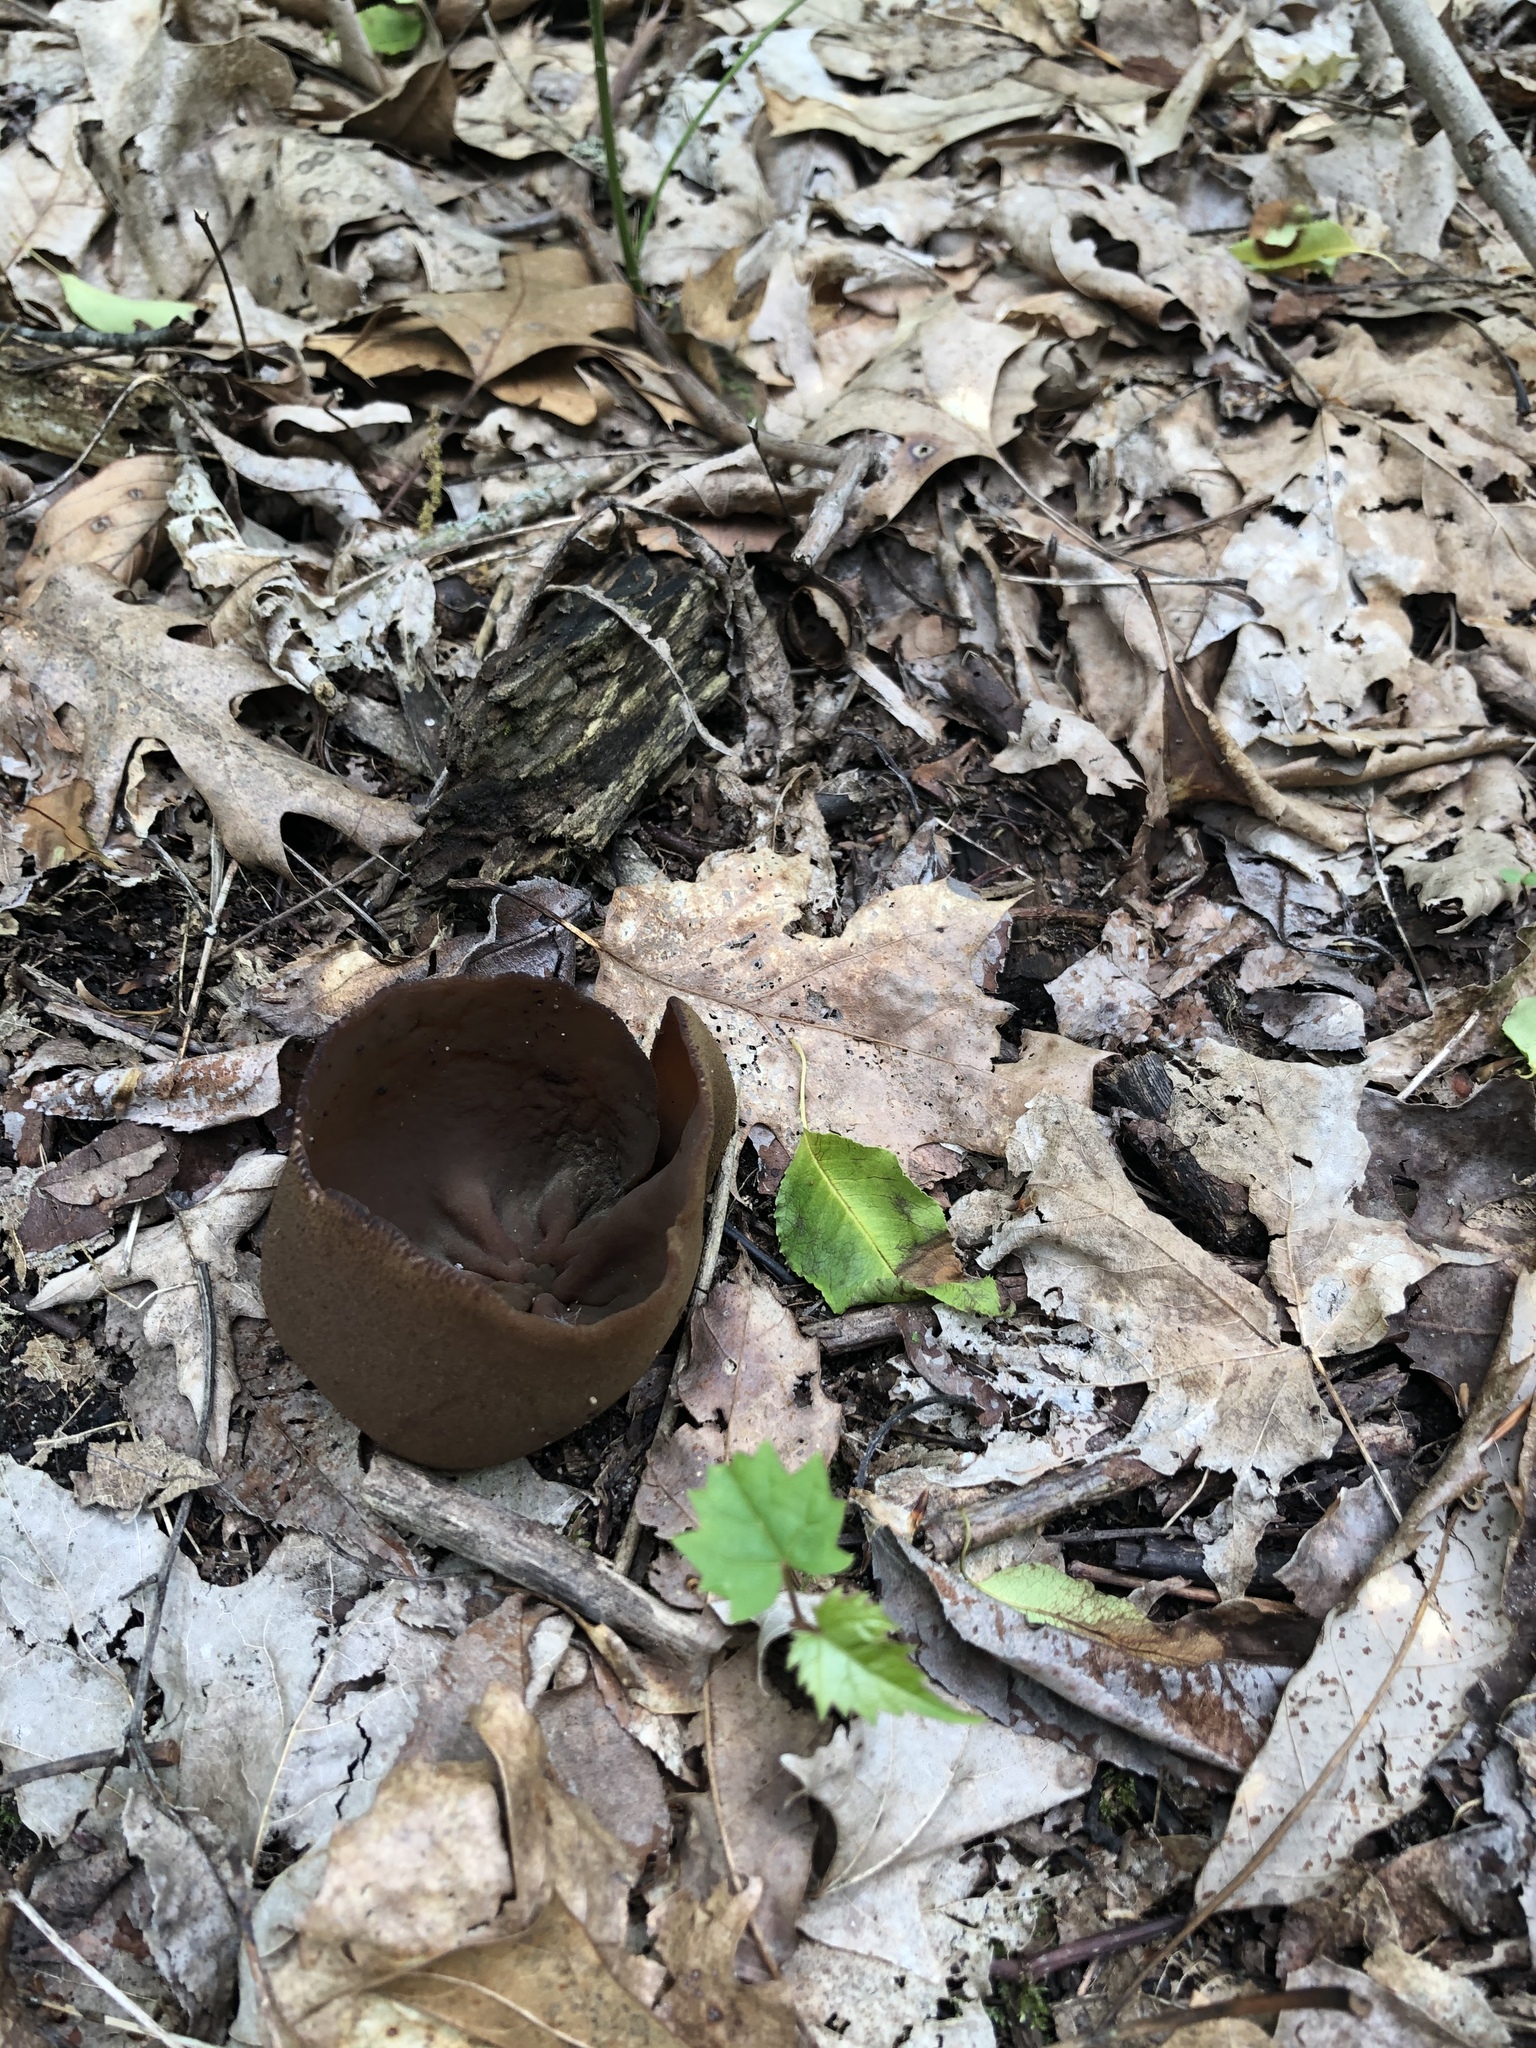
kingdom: Fungi
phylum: Ascomycota
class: Pezizomycetes
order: Pezizales
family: Pezizaceae
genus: Phylloscypha
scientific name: Phylloscypha phyllogena
